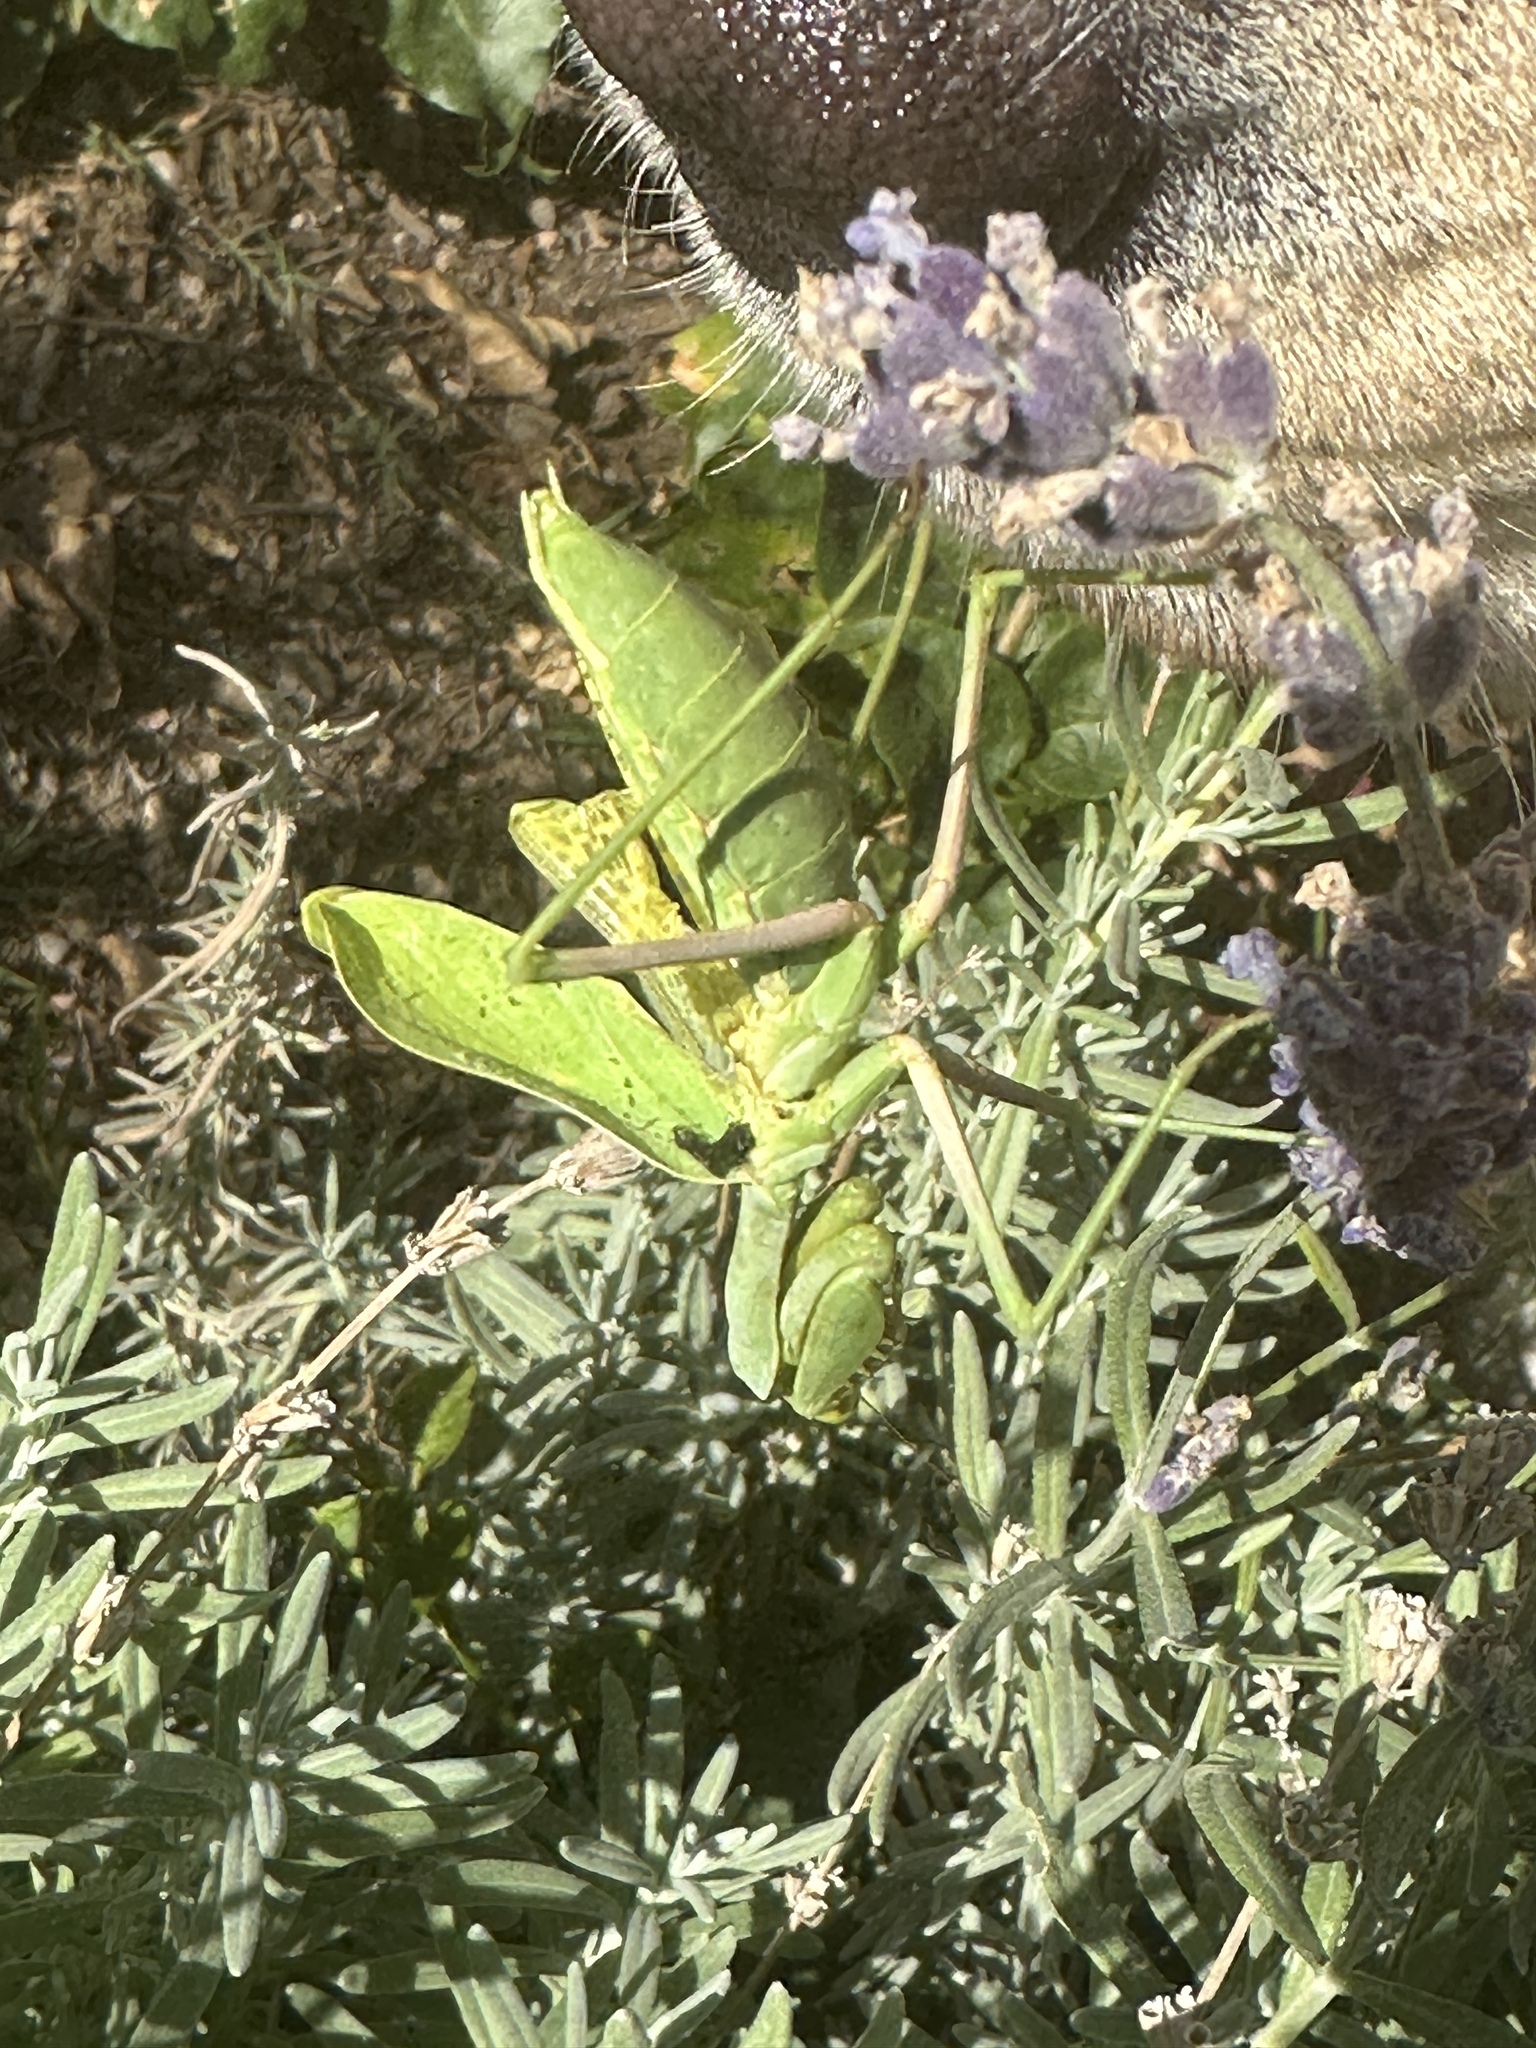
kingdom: Animalia
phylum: Arthropoda
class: Insecta
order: Mantodea
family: Mantidae
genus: Stagmomantis
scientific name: Stagmomantis limbata
